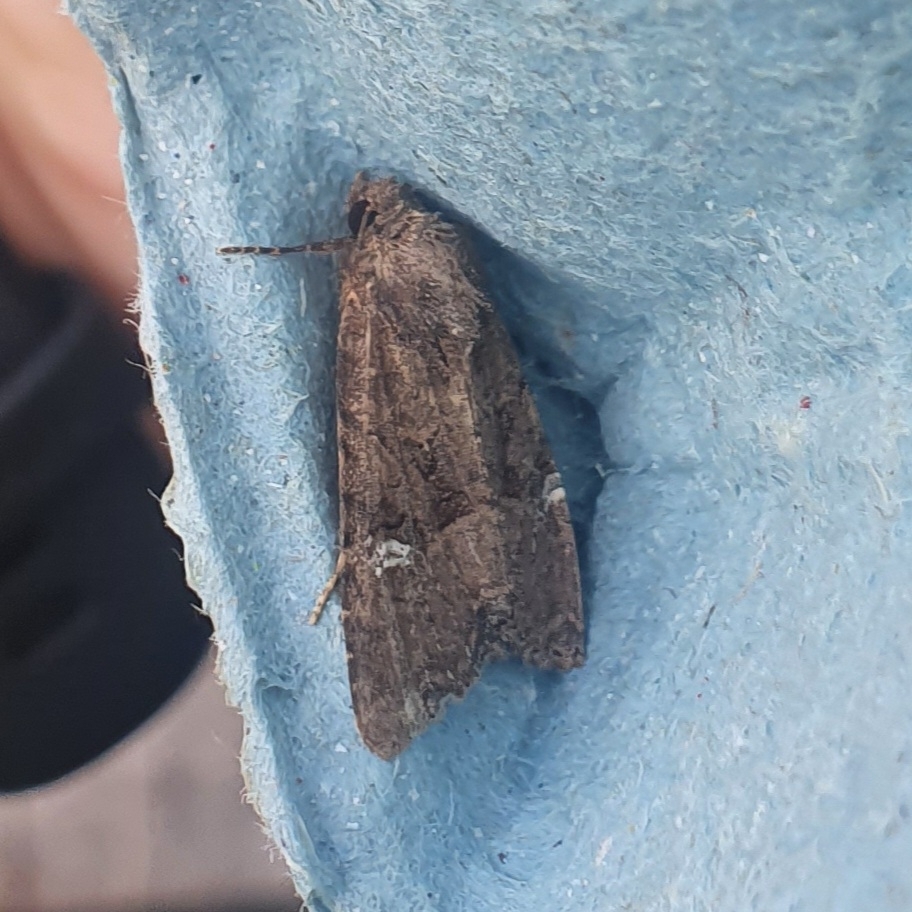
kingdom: Animalia
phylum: Arthropoda
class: Insecta
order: Lepidoptera
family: Noctuidae
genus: Mesapamea
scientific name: Mesapamea
